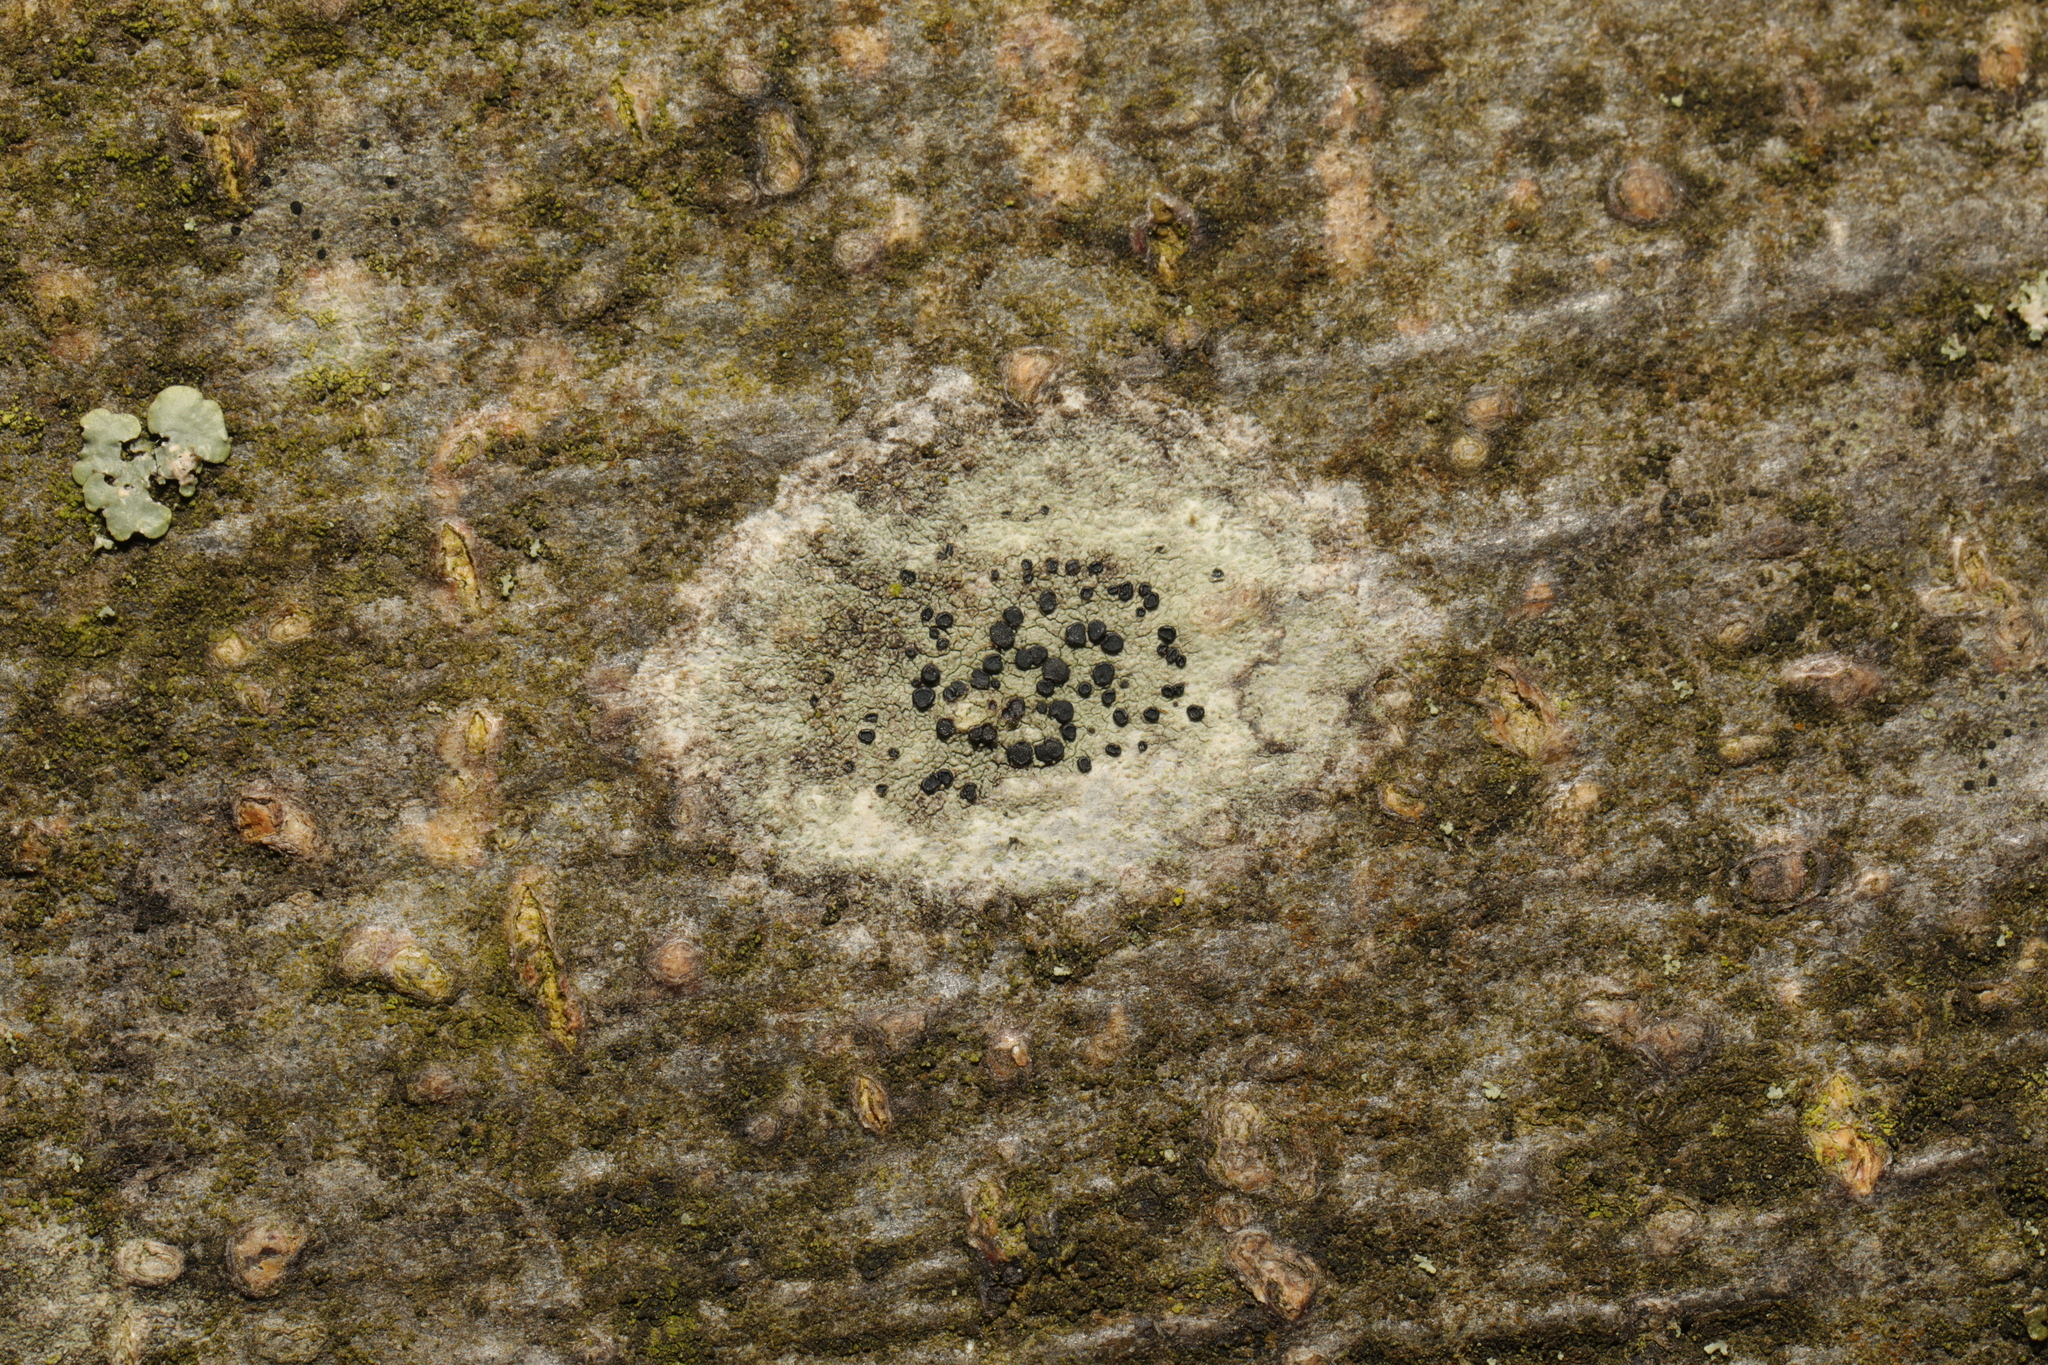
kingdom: Fungi
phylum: Ascomycota
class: Lecanoromycetes
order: Lecanorales
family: Lecanoraceae
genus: Lecidella
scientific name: Lecidella elaeochroma
